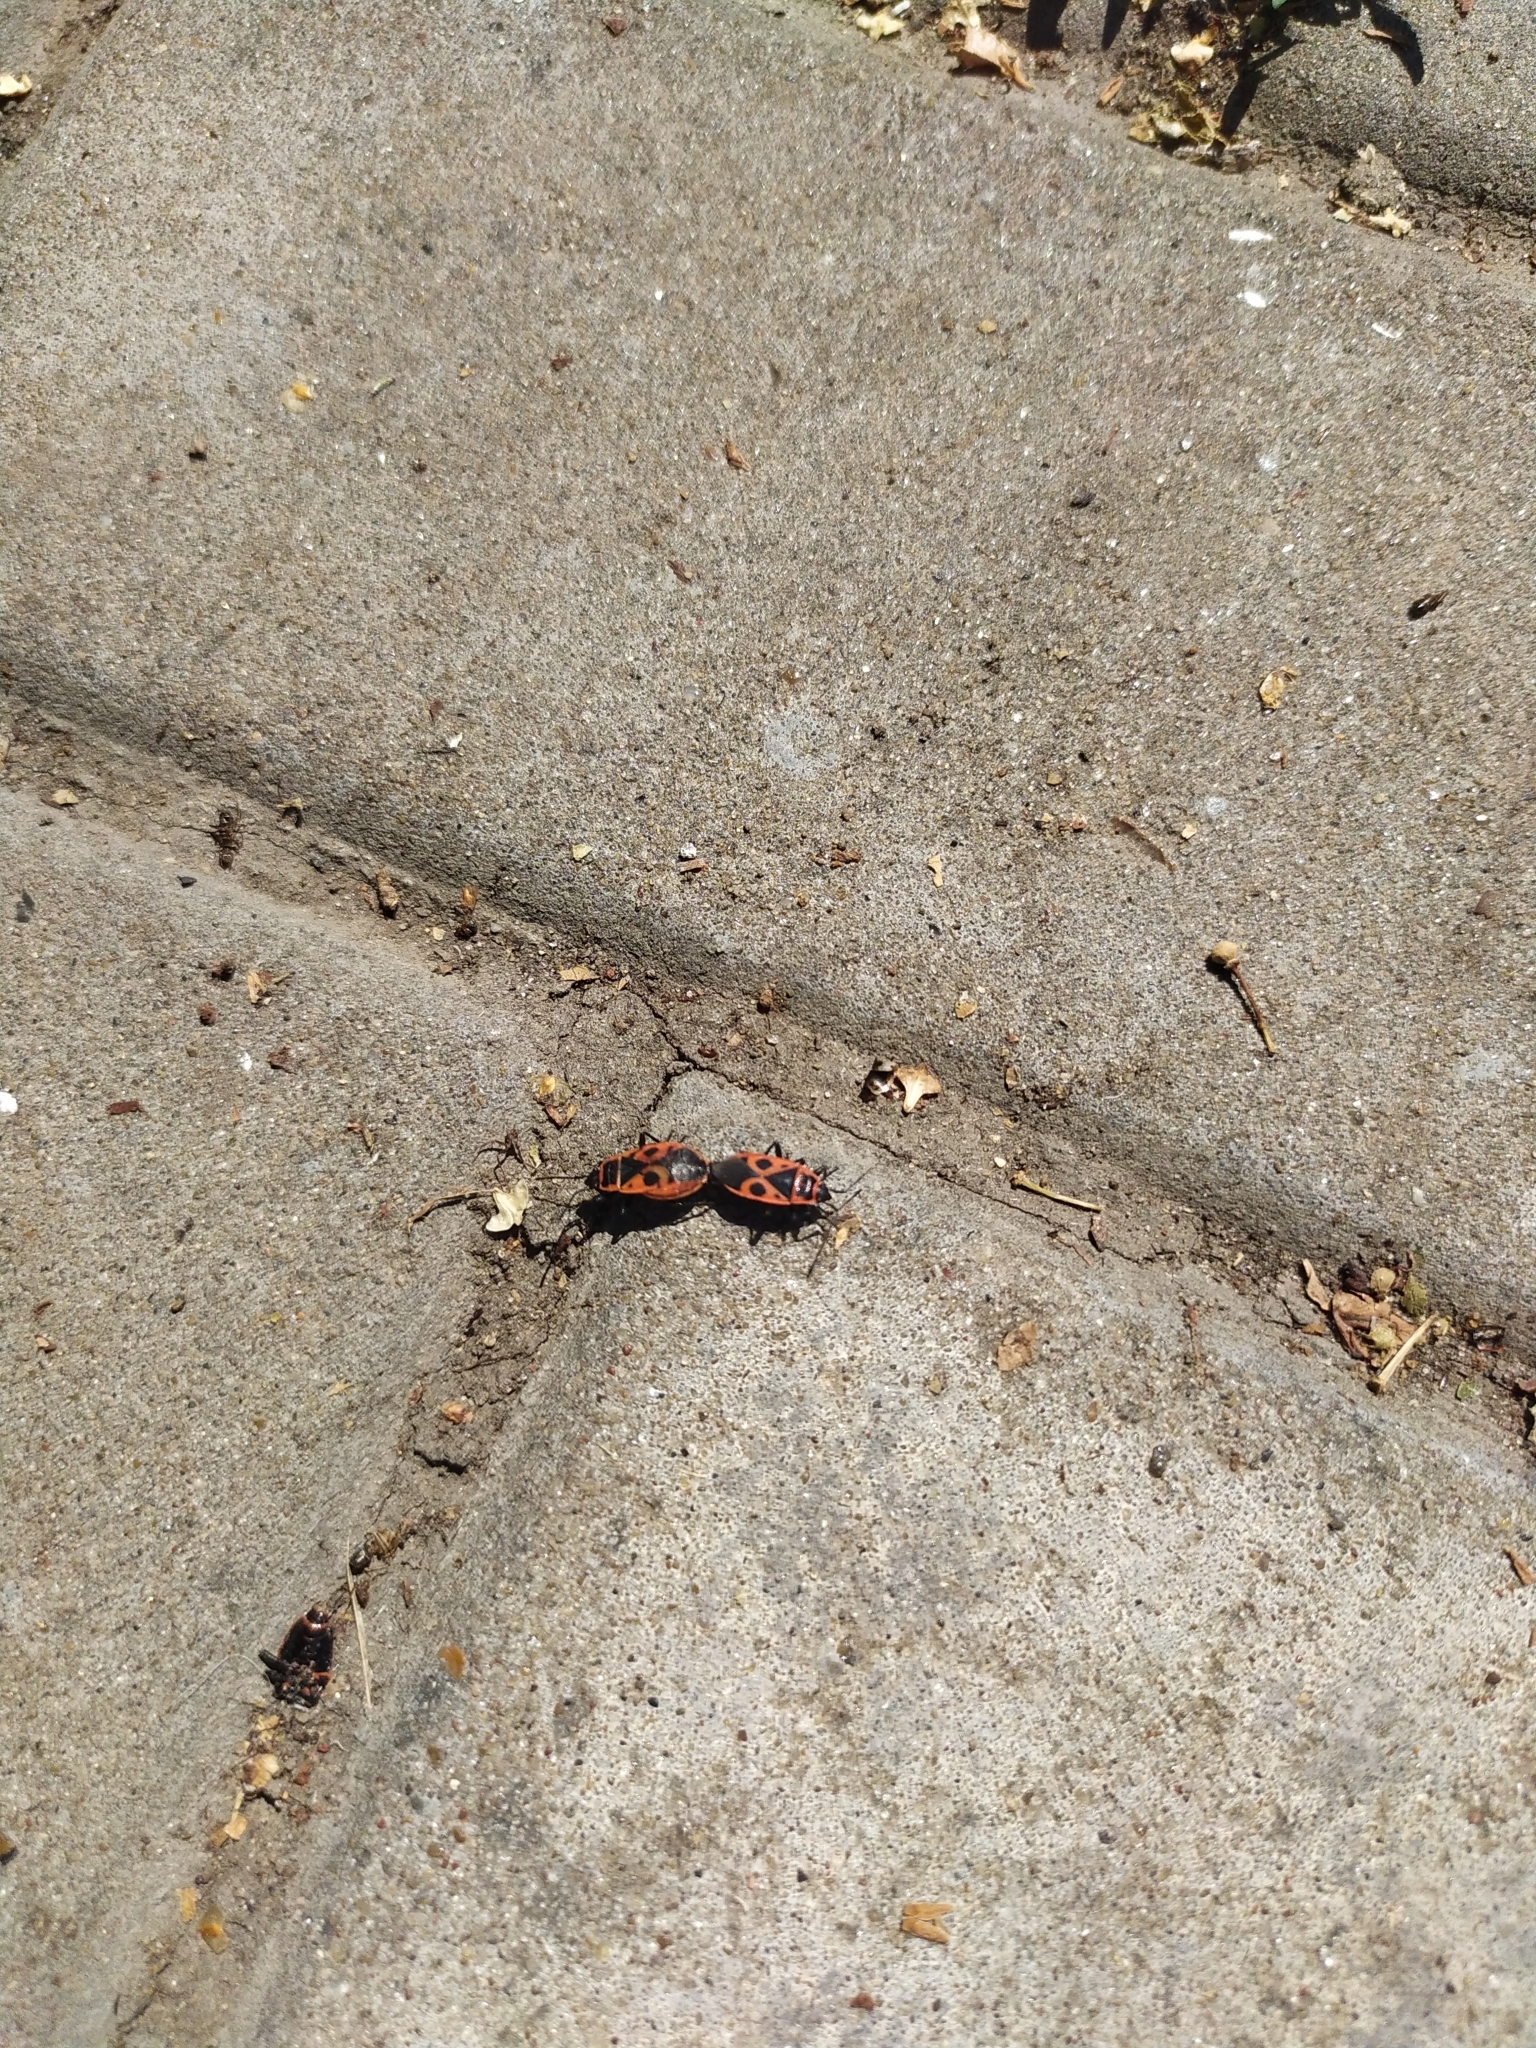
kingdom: Animalia
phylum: Arthropoda
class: Insecta
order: Hemiptera
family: Pyrrhocoridae
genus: Pyrrhocoris
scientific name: Pyrrhocoris apterus
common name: Firebug
